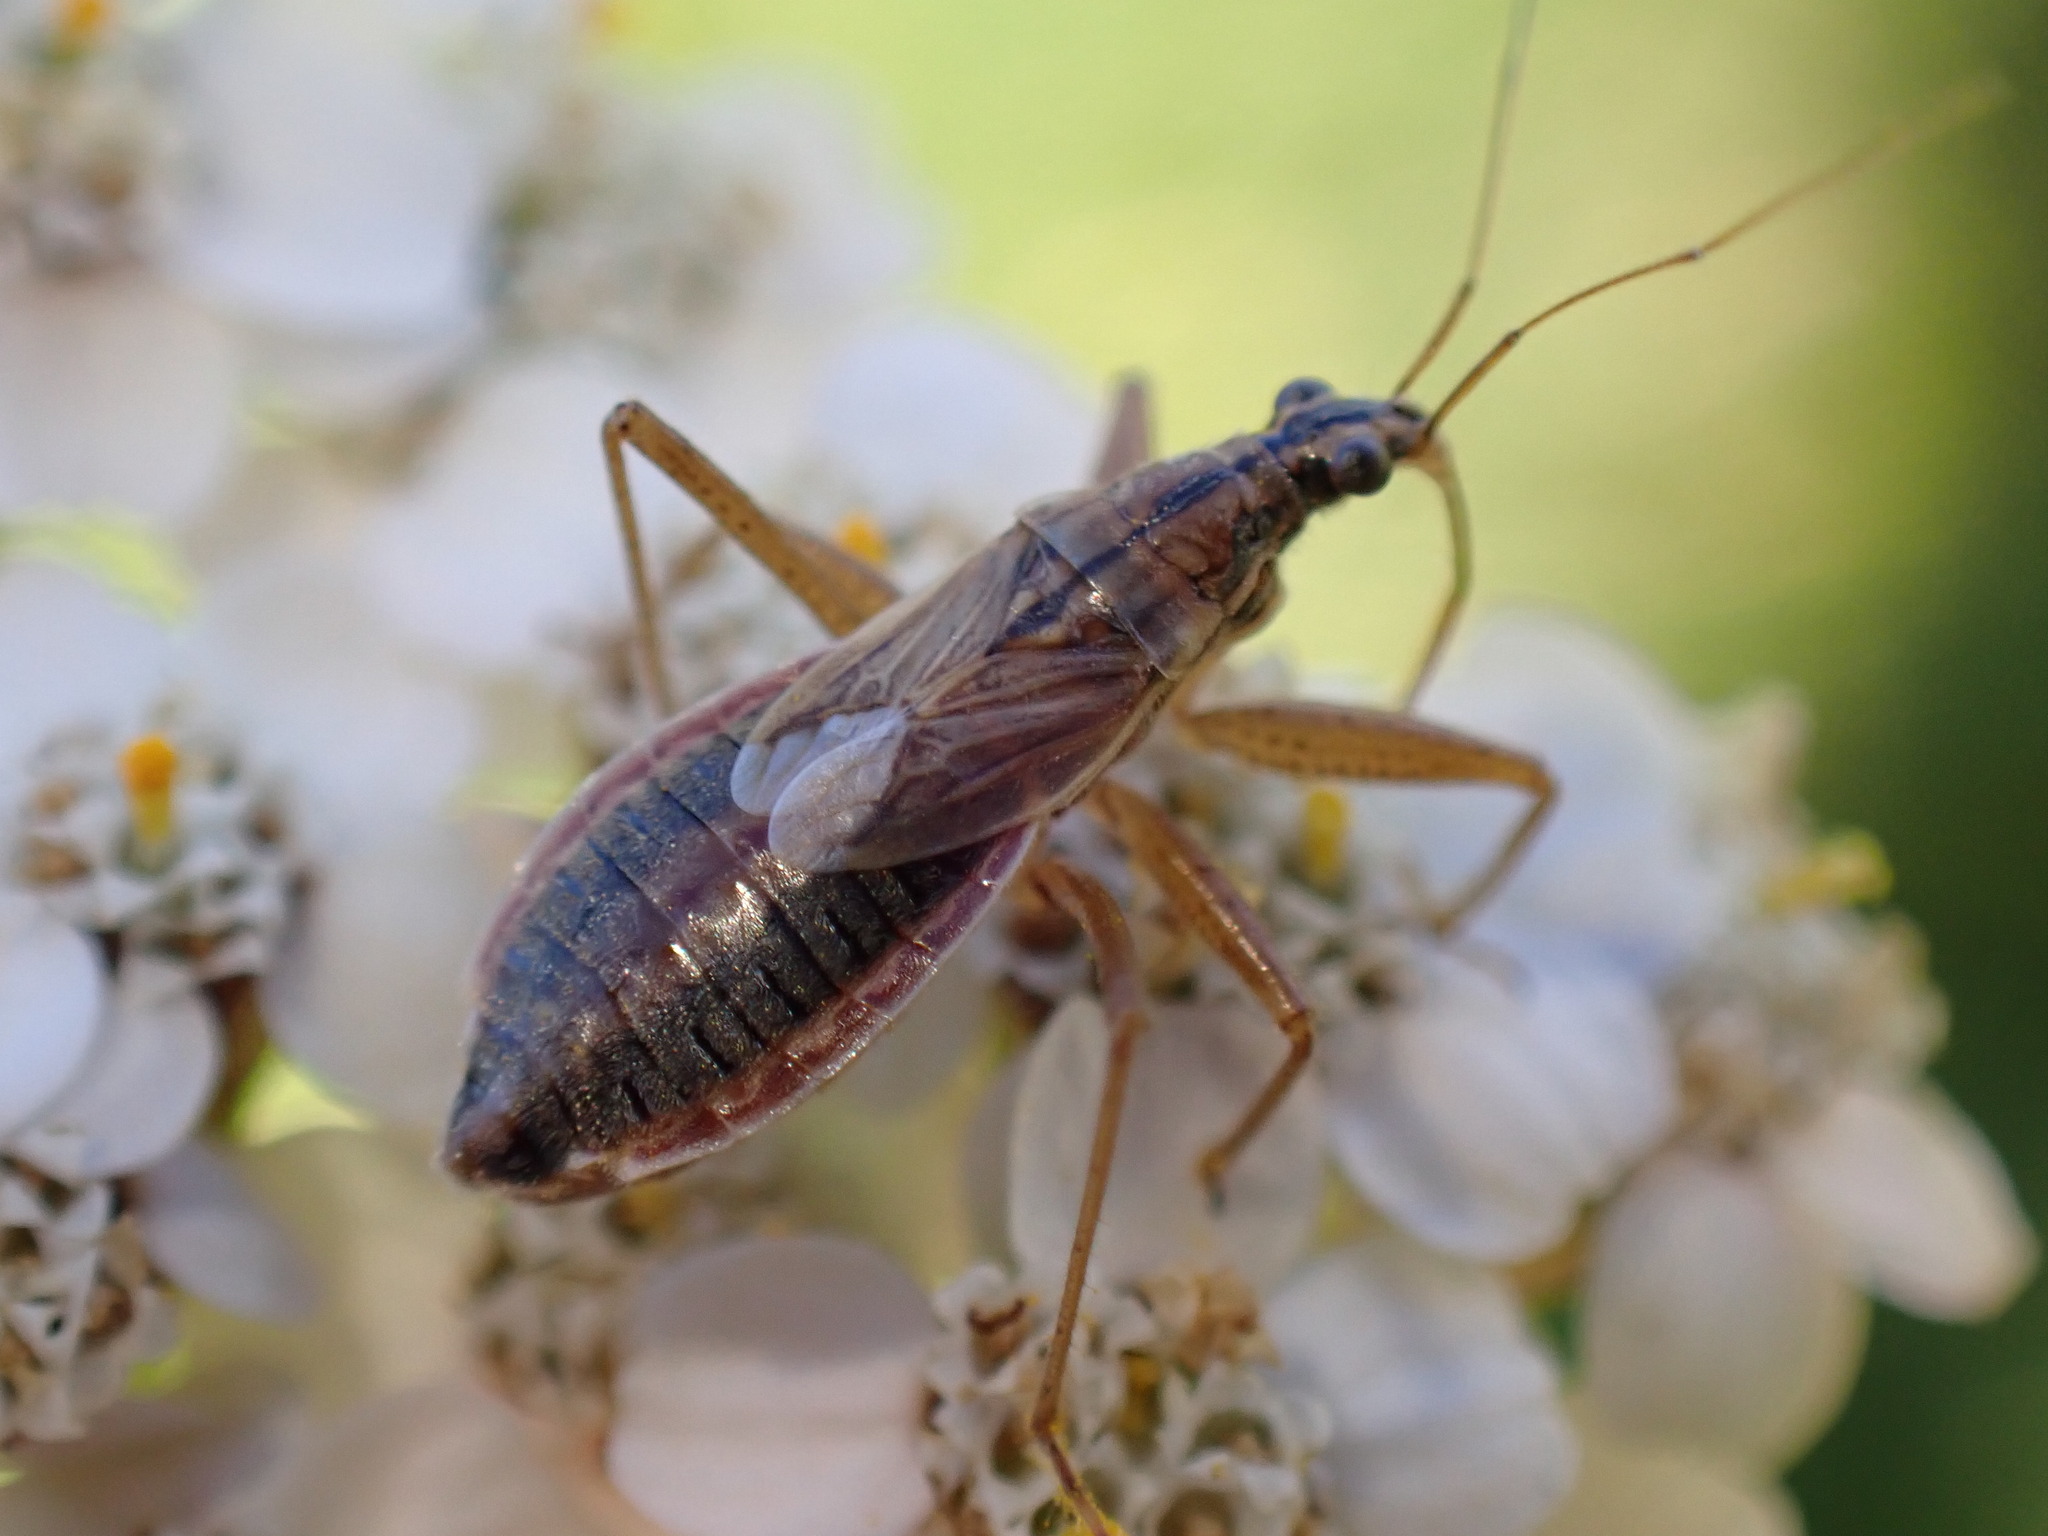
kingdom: Animalia
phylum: Arthropoda
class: Insecta
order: Hemiptera
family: Nabidae
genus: Nabis
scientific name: Nabis flavomarginatus
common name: Broad damselbug
